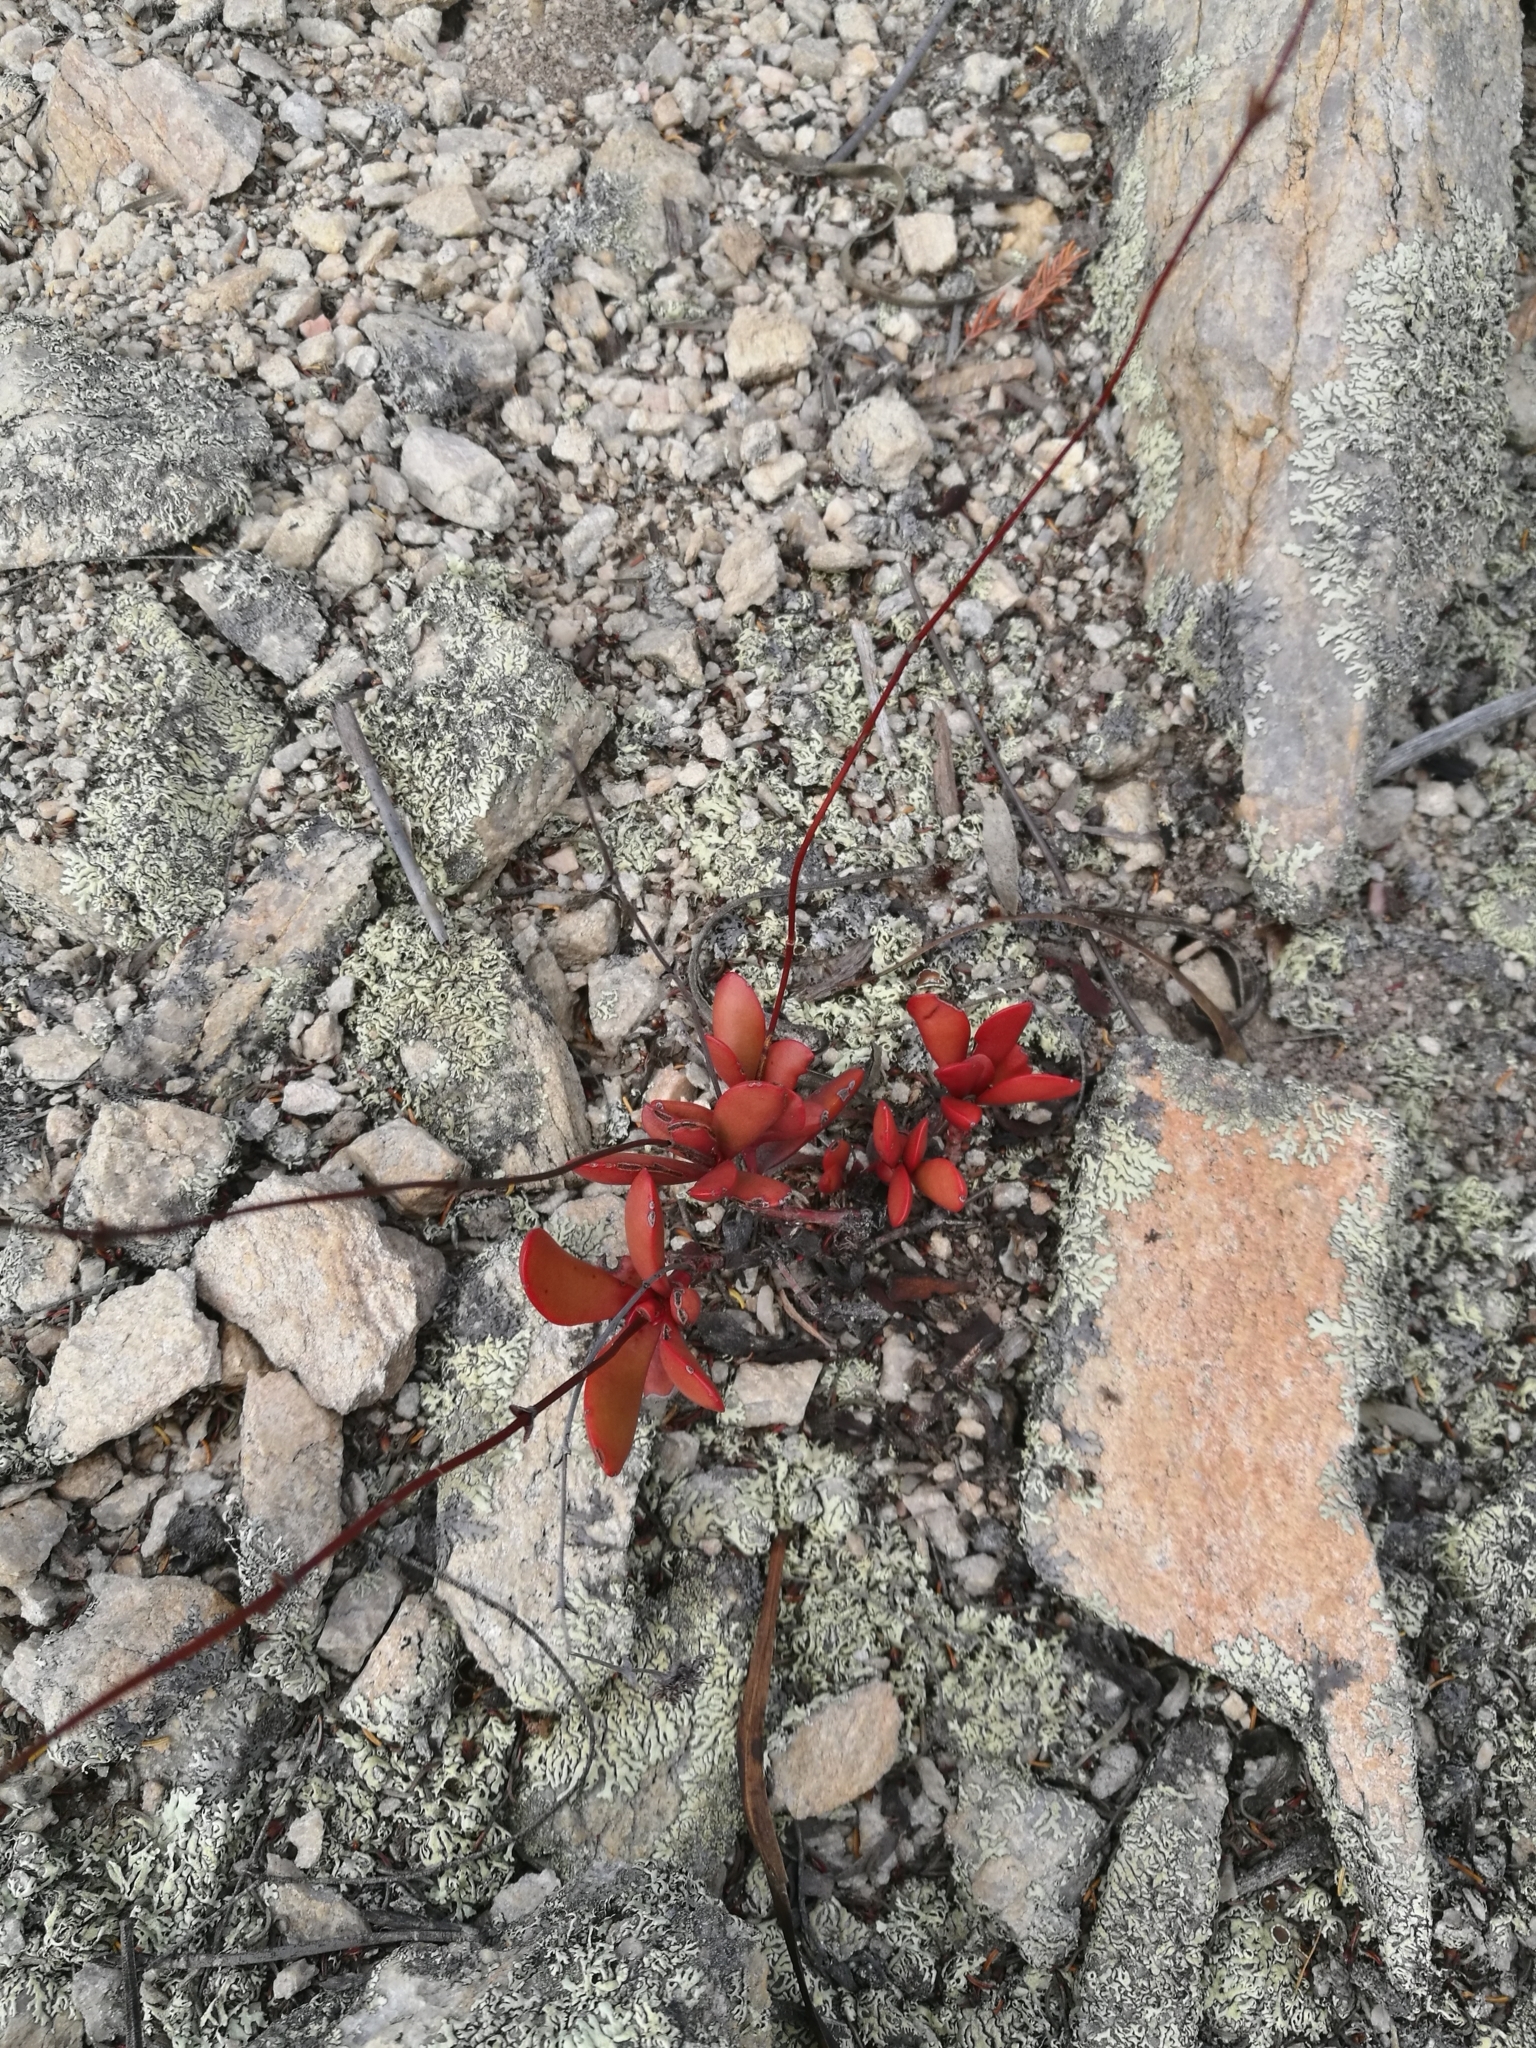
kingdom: Plantae
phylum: Tracheophyta
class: Magnoliopsida
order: Saxifragales
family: Crassulaceae
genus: Crassula
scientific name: Crassula atropurpurea
